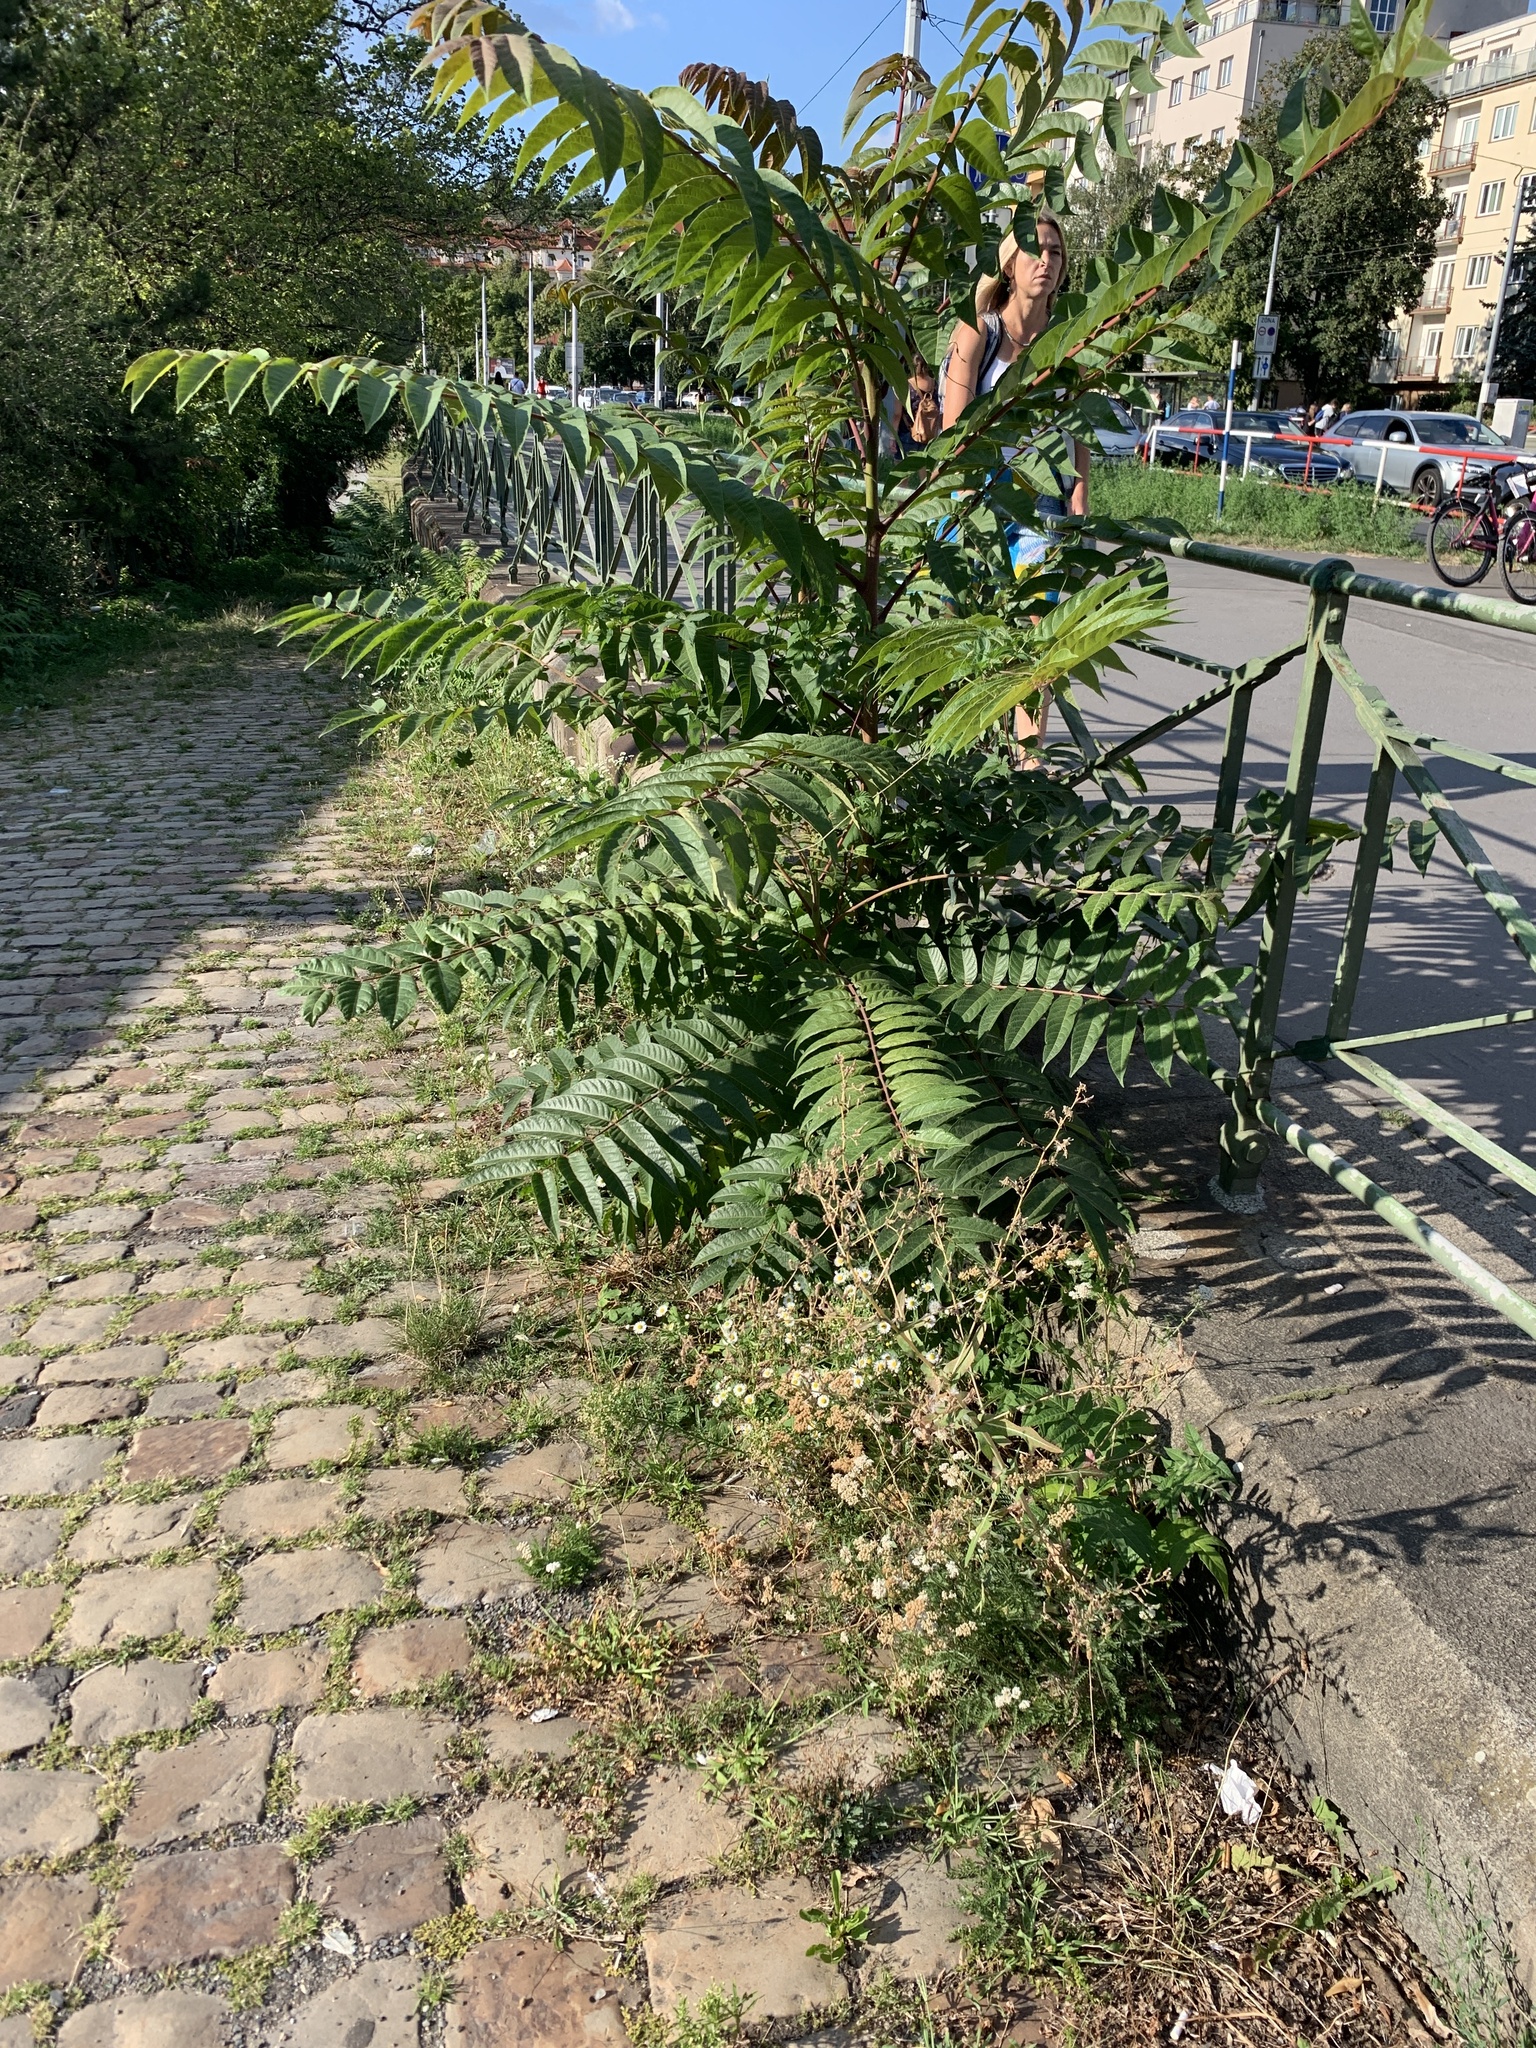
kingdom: Plantae
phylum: Tracheophyta
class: Magnoliopsida
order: Sapindales
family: Simaroubaceae
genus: Ailanthus
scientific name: Ailanthus altissima
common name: Tree-of-heaven
